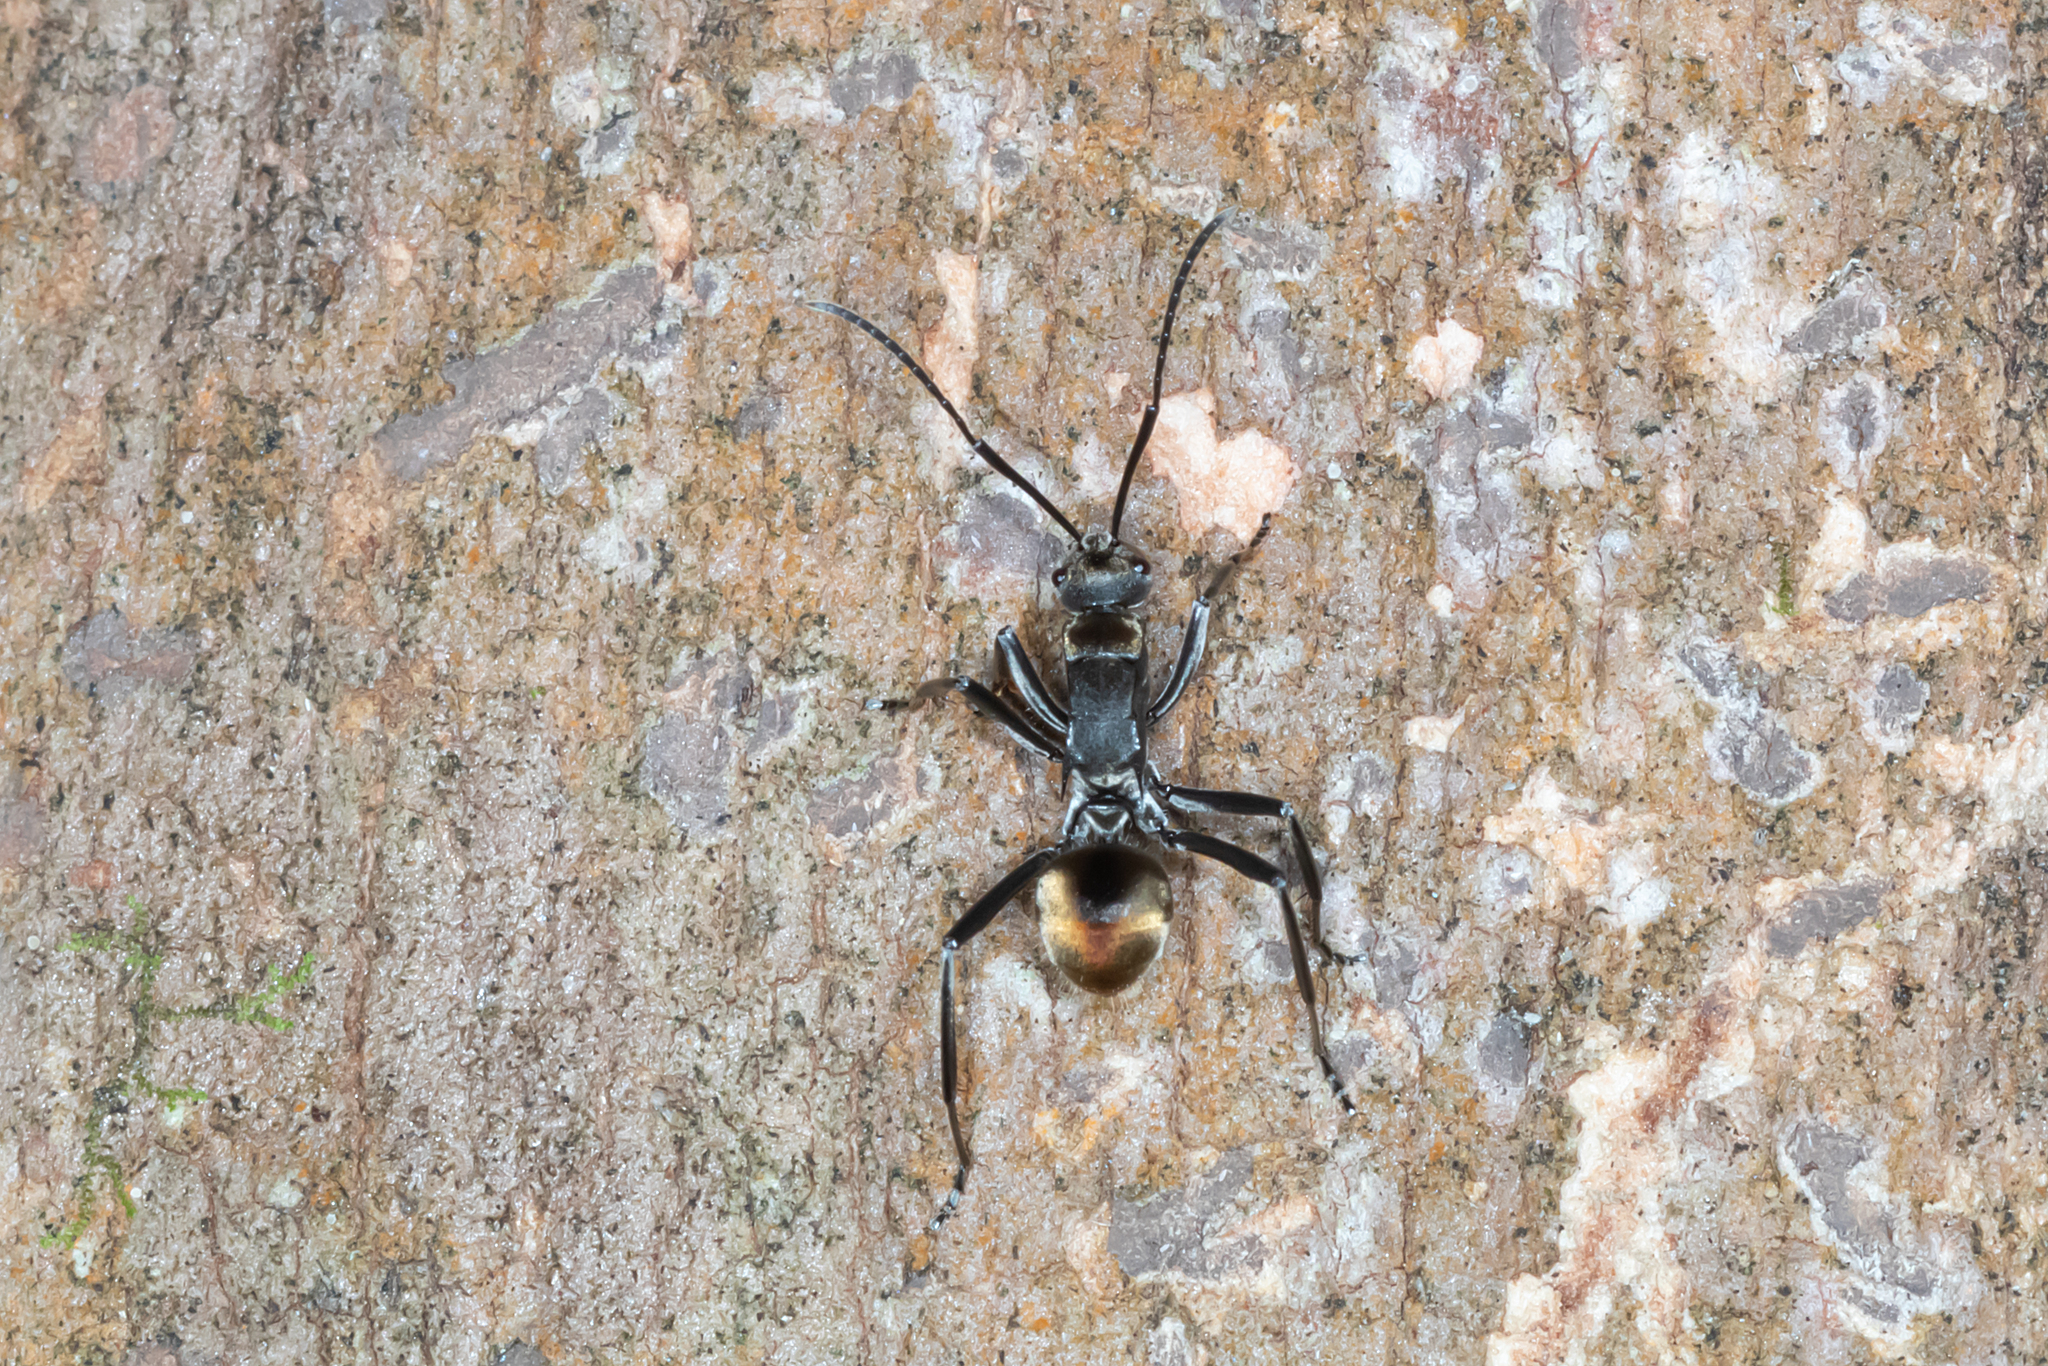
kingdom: Animalia
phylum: Arthropoda
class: Insecta
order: Hymenoptera
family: Formicidae
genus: Polyrhachis
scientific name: Polyrhachis
